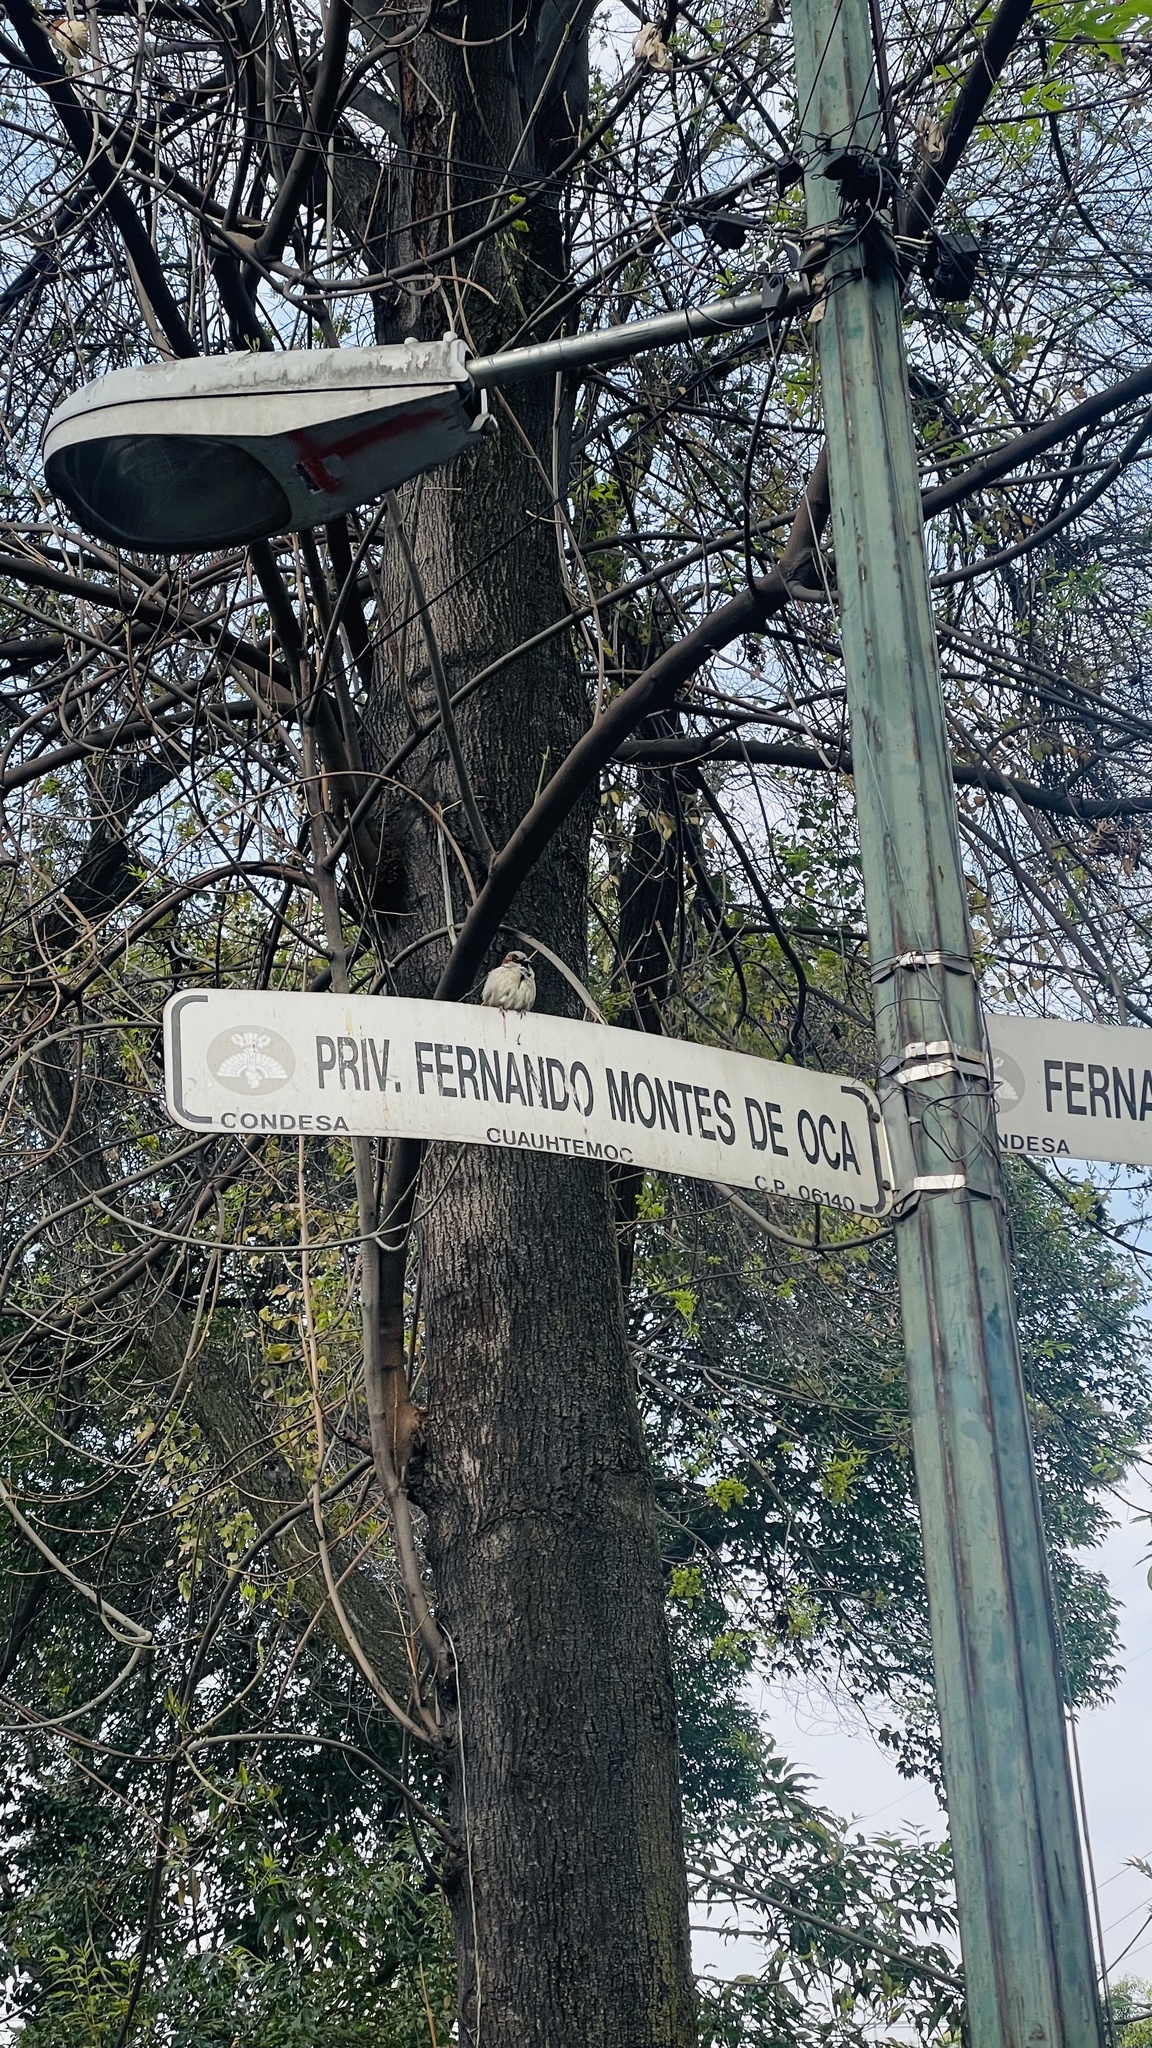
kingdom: Animalia
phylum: Chordata
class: Aves
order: Passeriformes
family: Passeridae
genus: Passer
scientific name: Passer domesticus
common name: House sparrow
